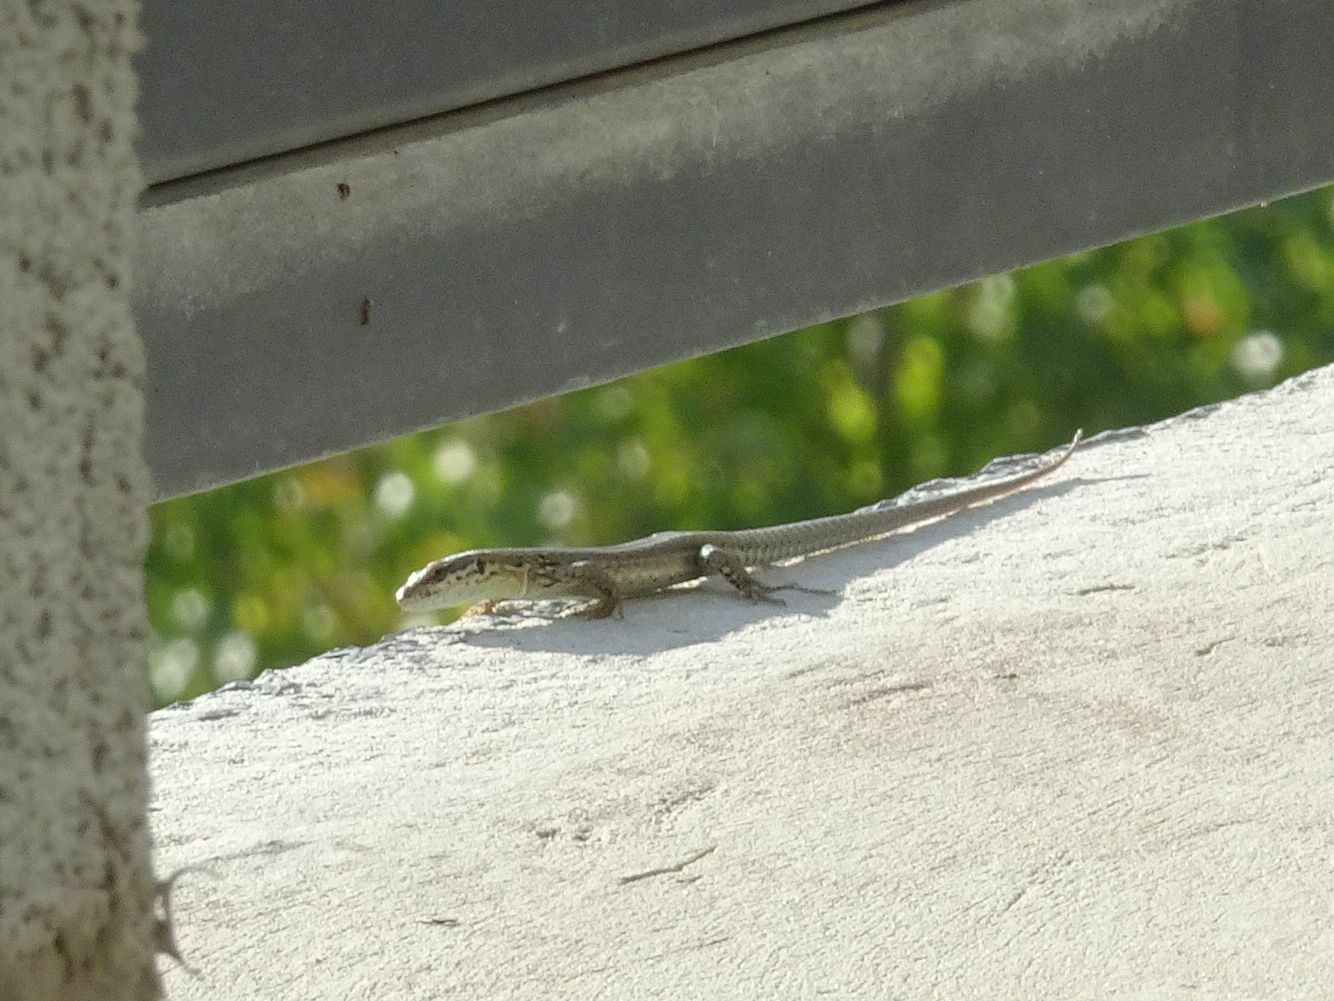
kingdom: Animalia
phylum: Chordata
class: Squamata
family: Lacertidae
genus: Podarcis
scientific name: Podarcis muralis
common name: Common wall lizard
